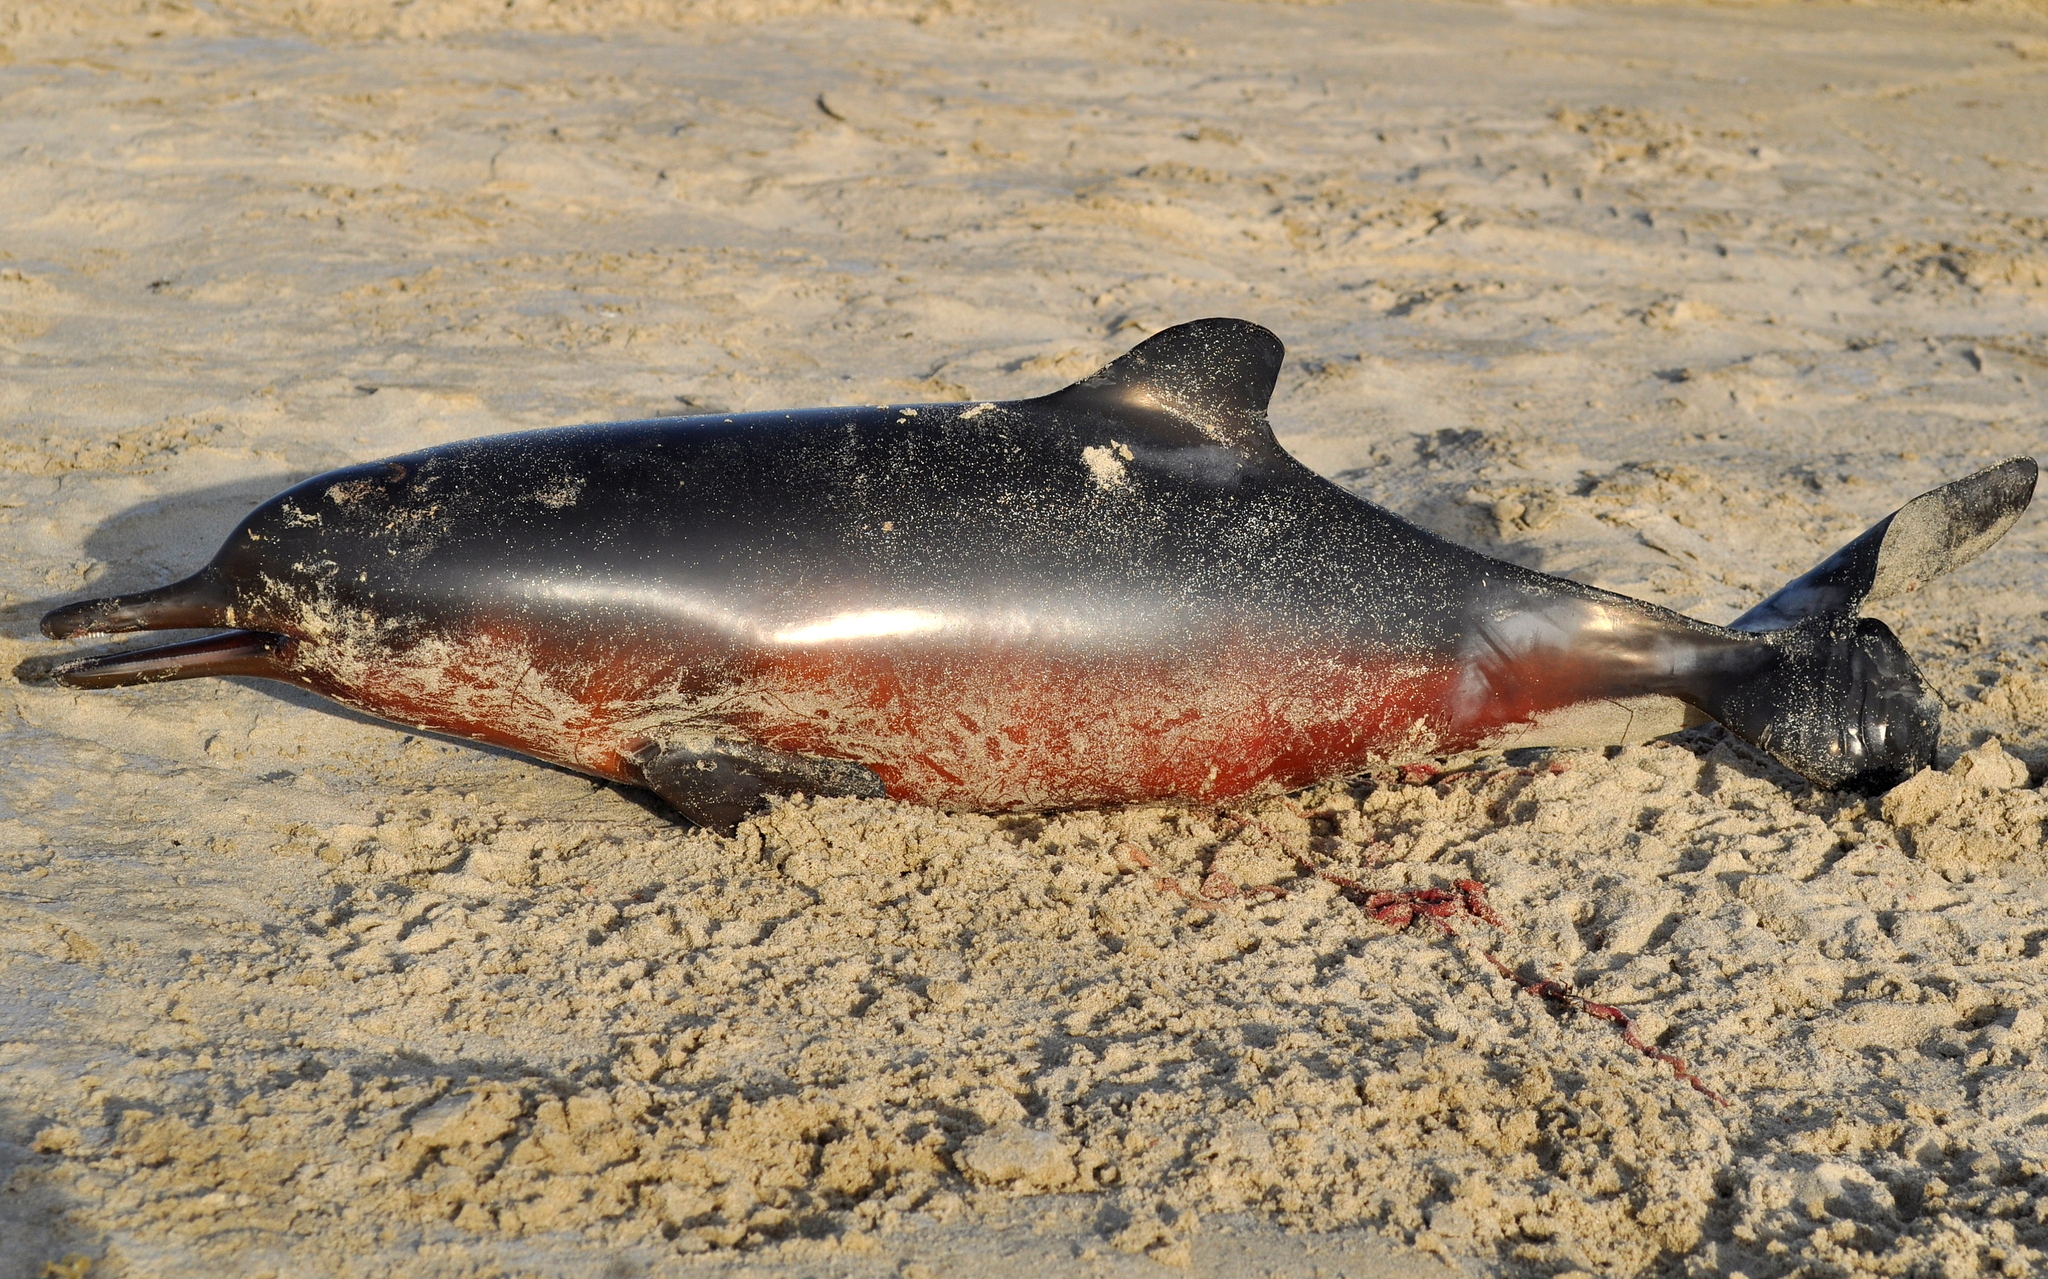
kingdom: Animalia
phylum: Chordata
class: Mammalia
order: Cetacea
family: Pontoporiidae
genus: Pontoporia
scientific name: Pontoporia blainvillei
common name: Franciscana
